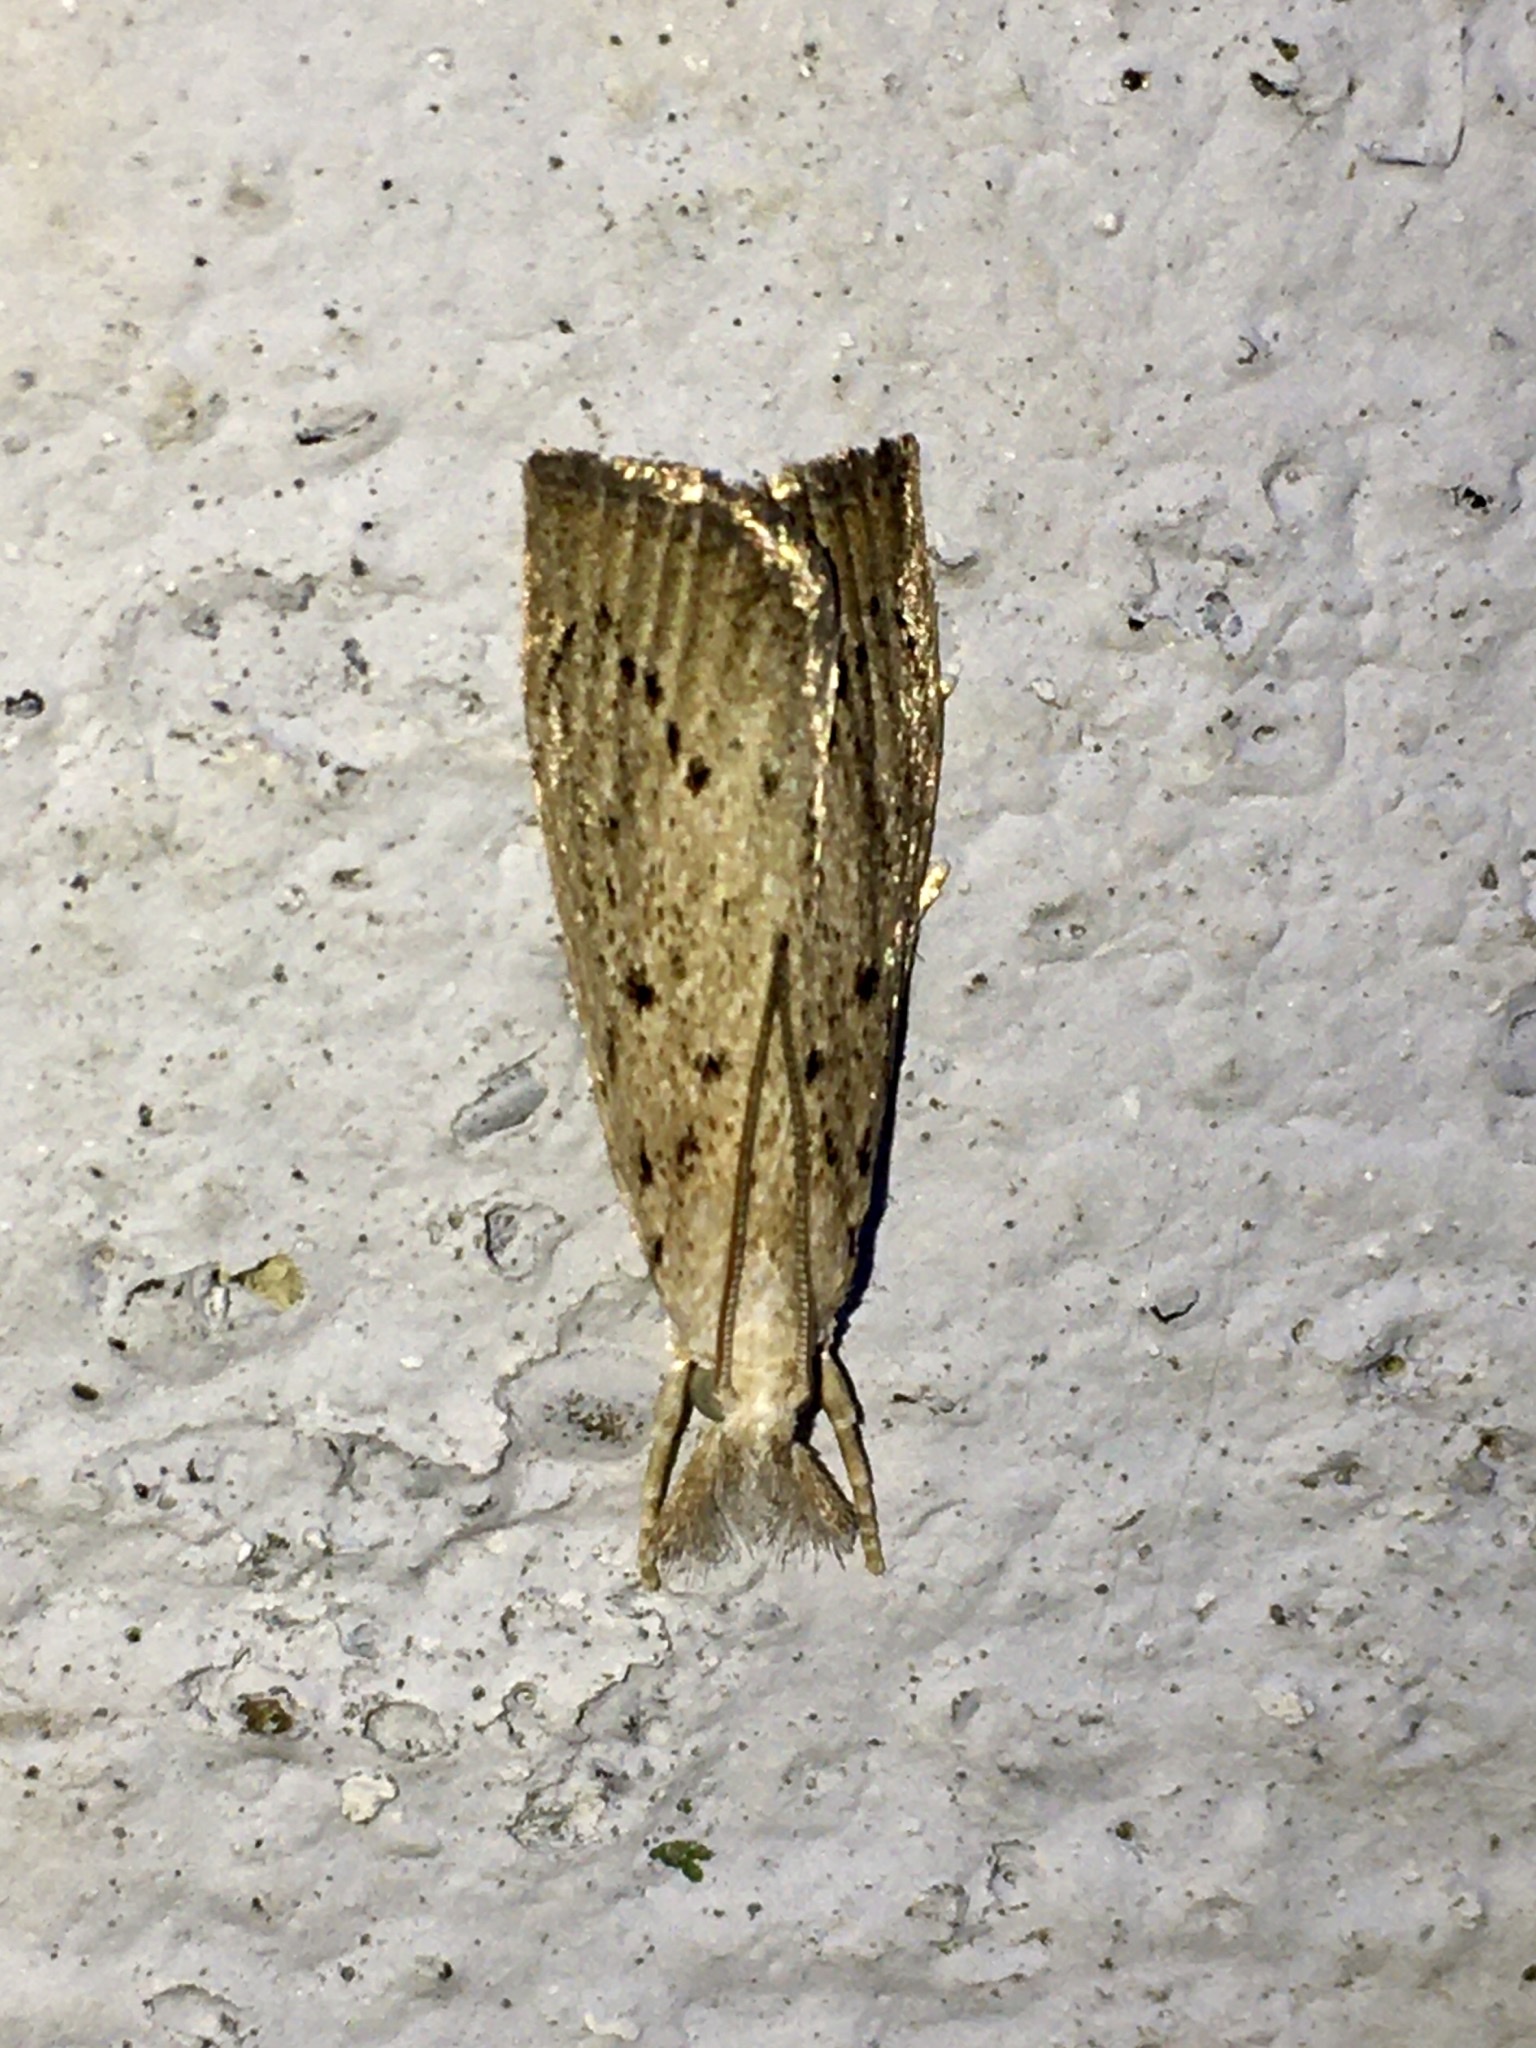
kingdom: Animalia
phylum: Arthropoda
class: Insecta
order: Lepidoptera
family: Crambidae
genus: Calamotropha
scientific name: Calamotropha paludella
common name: Bulrush veneer
